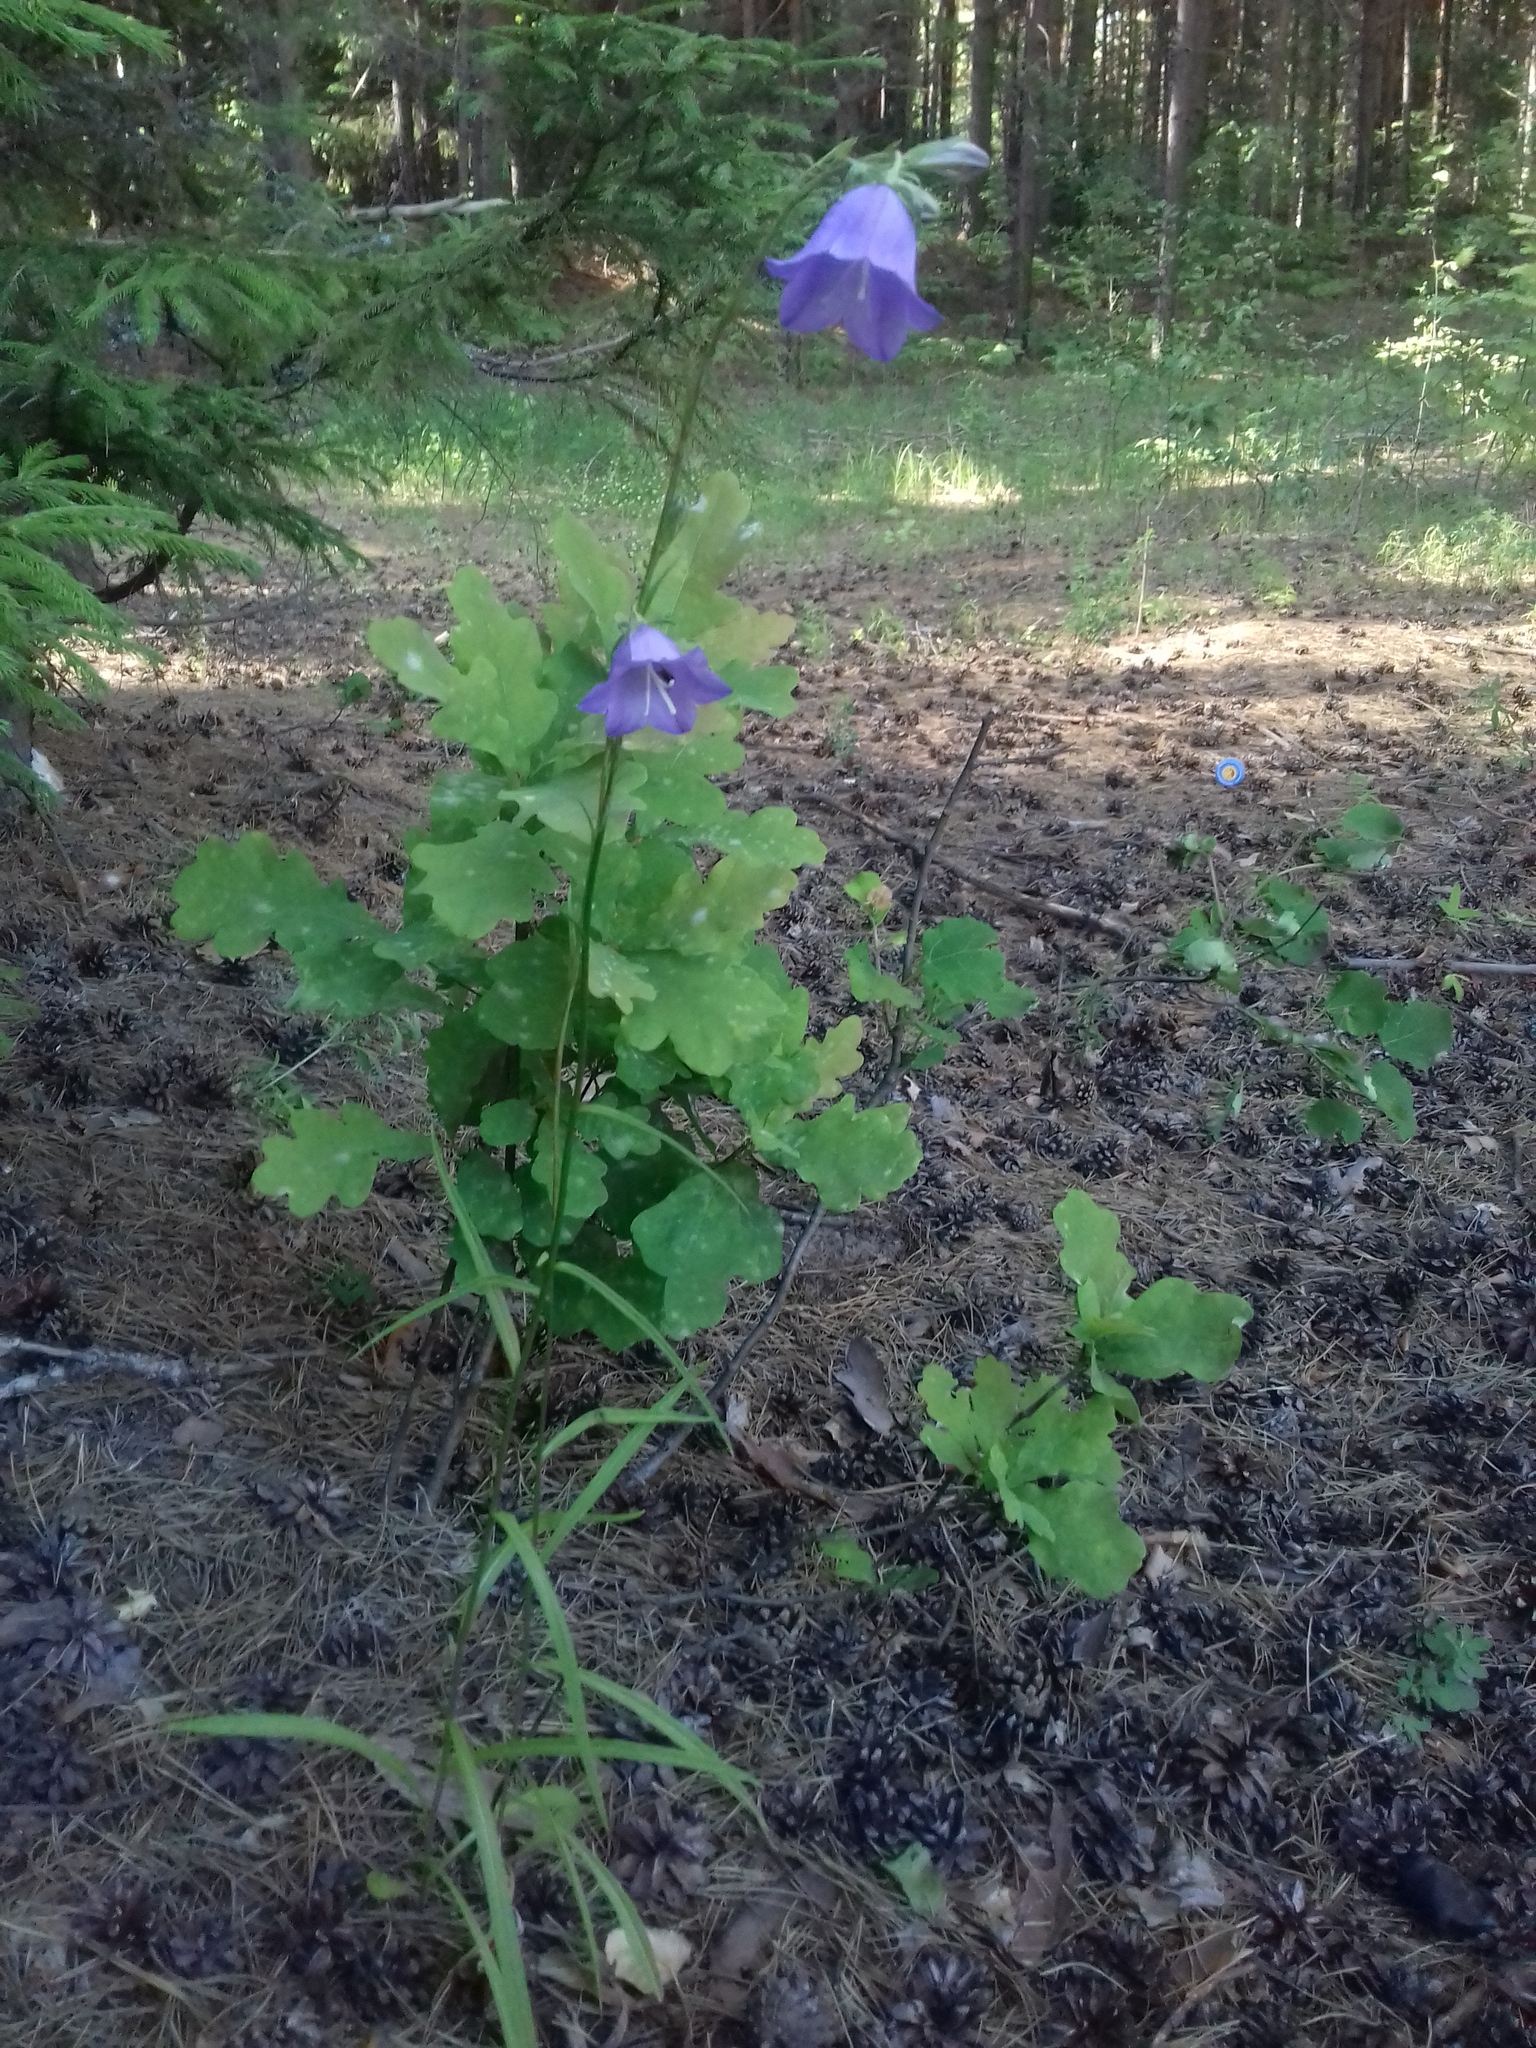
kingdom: Plantae
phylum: Tracheophyta
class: Magnoliopsida
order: Asterales
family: Campanulaceae
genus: Campanula
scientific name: Campanula persicifolia
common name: Peach-leaved bellflower
